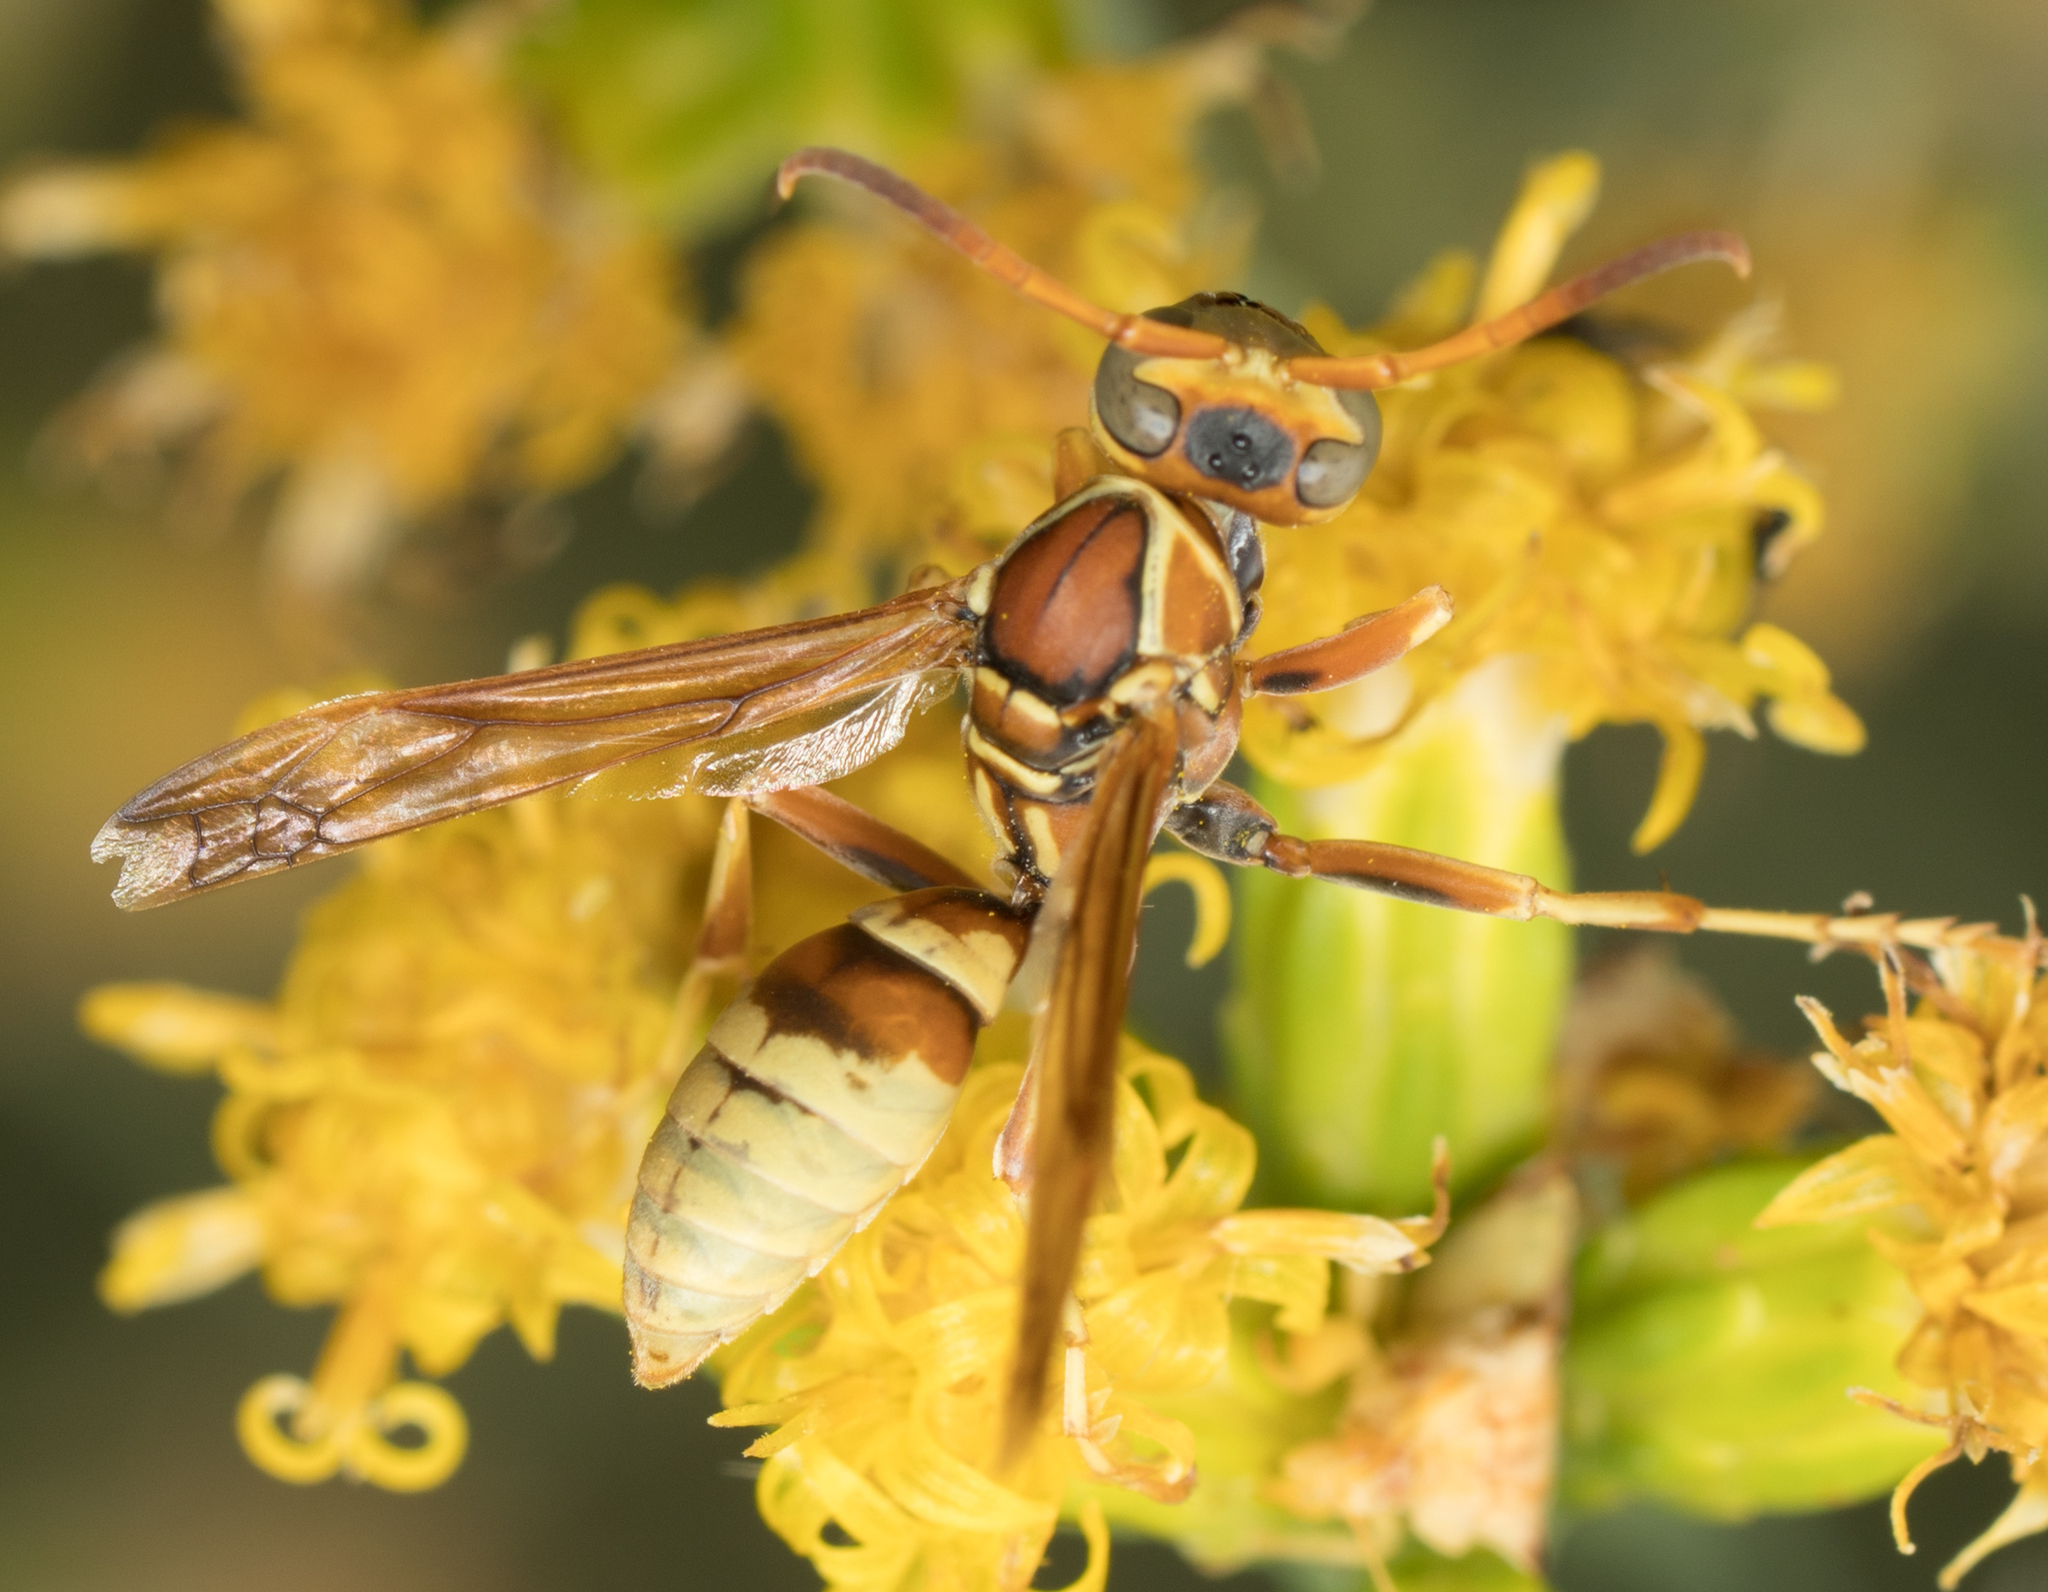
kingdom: Animalia
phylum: Arthropoda
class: Insecta
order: Hymenoptera
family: Eumenidae
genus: Polistes
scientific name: Polistes dorsalis
